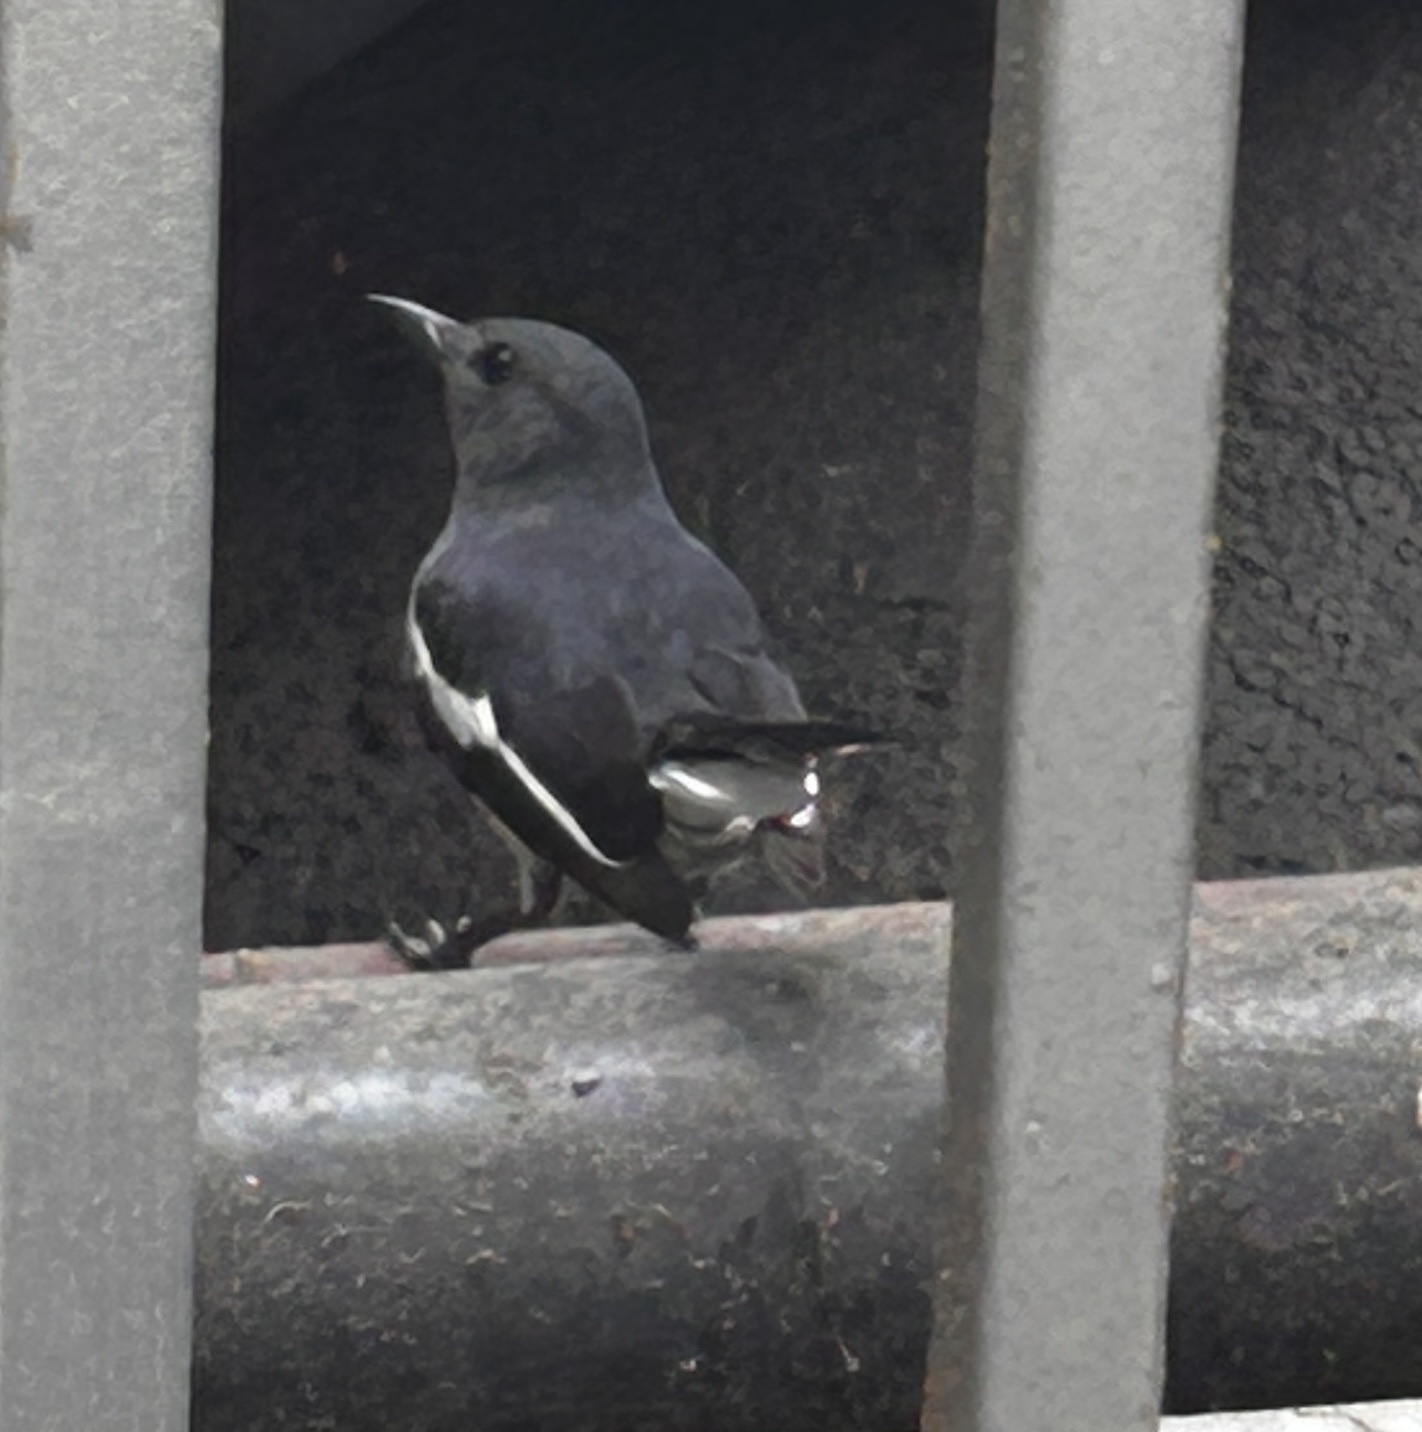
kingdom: Animalia
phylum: Chordata
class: Aves
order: Passeriformes
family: Muscicapidae
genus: Copsychus
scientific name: Copsychus saularis
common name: Oriental magpie-robin
